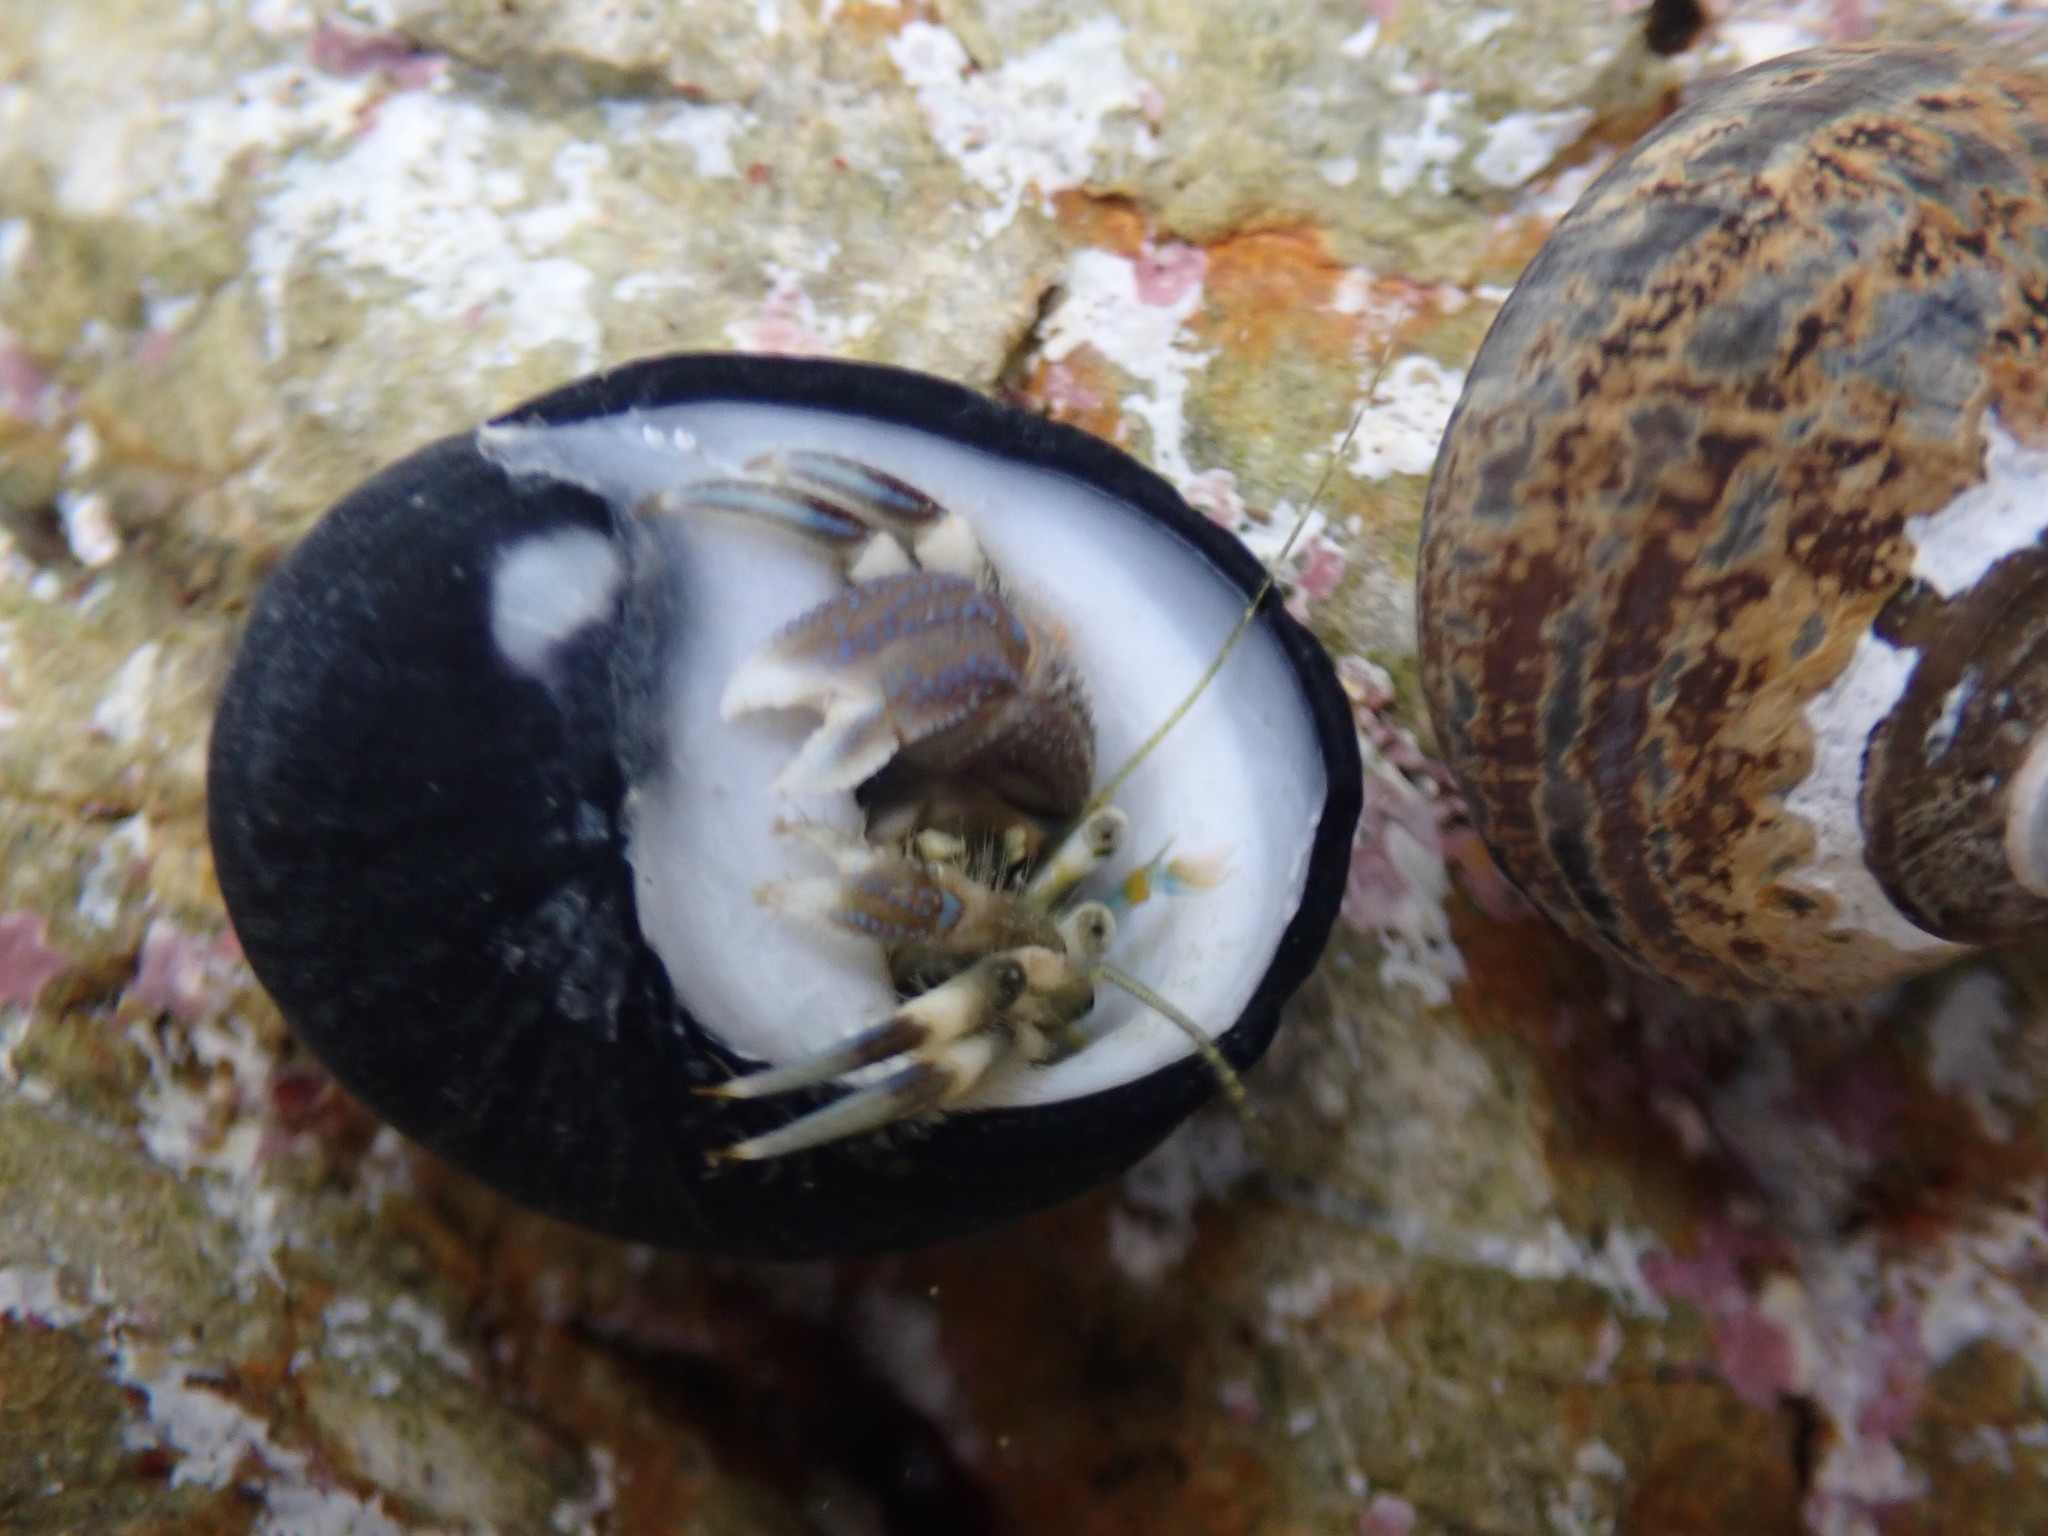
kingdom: Animalia
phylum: Arthropoda
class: Malacostraca
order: Decapoda
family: Paguridae
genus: Pagurus
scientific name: Pagurus novizealandiae
